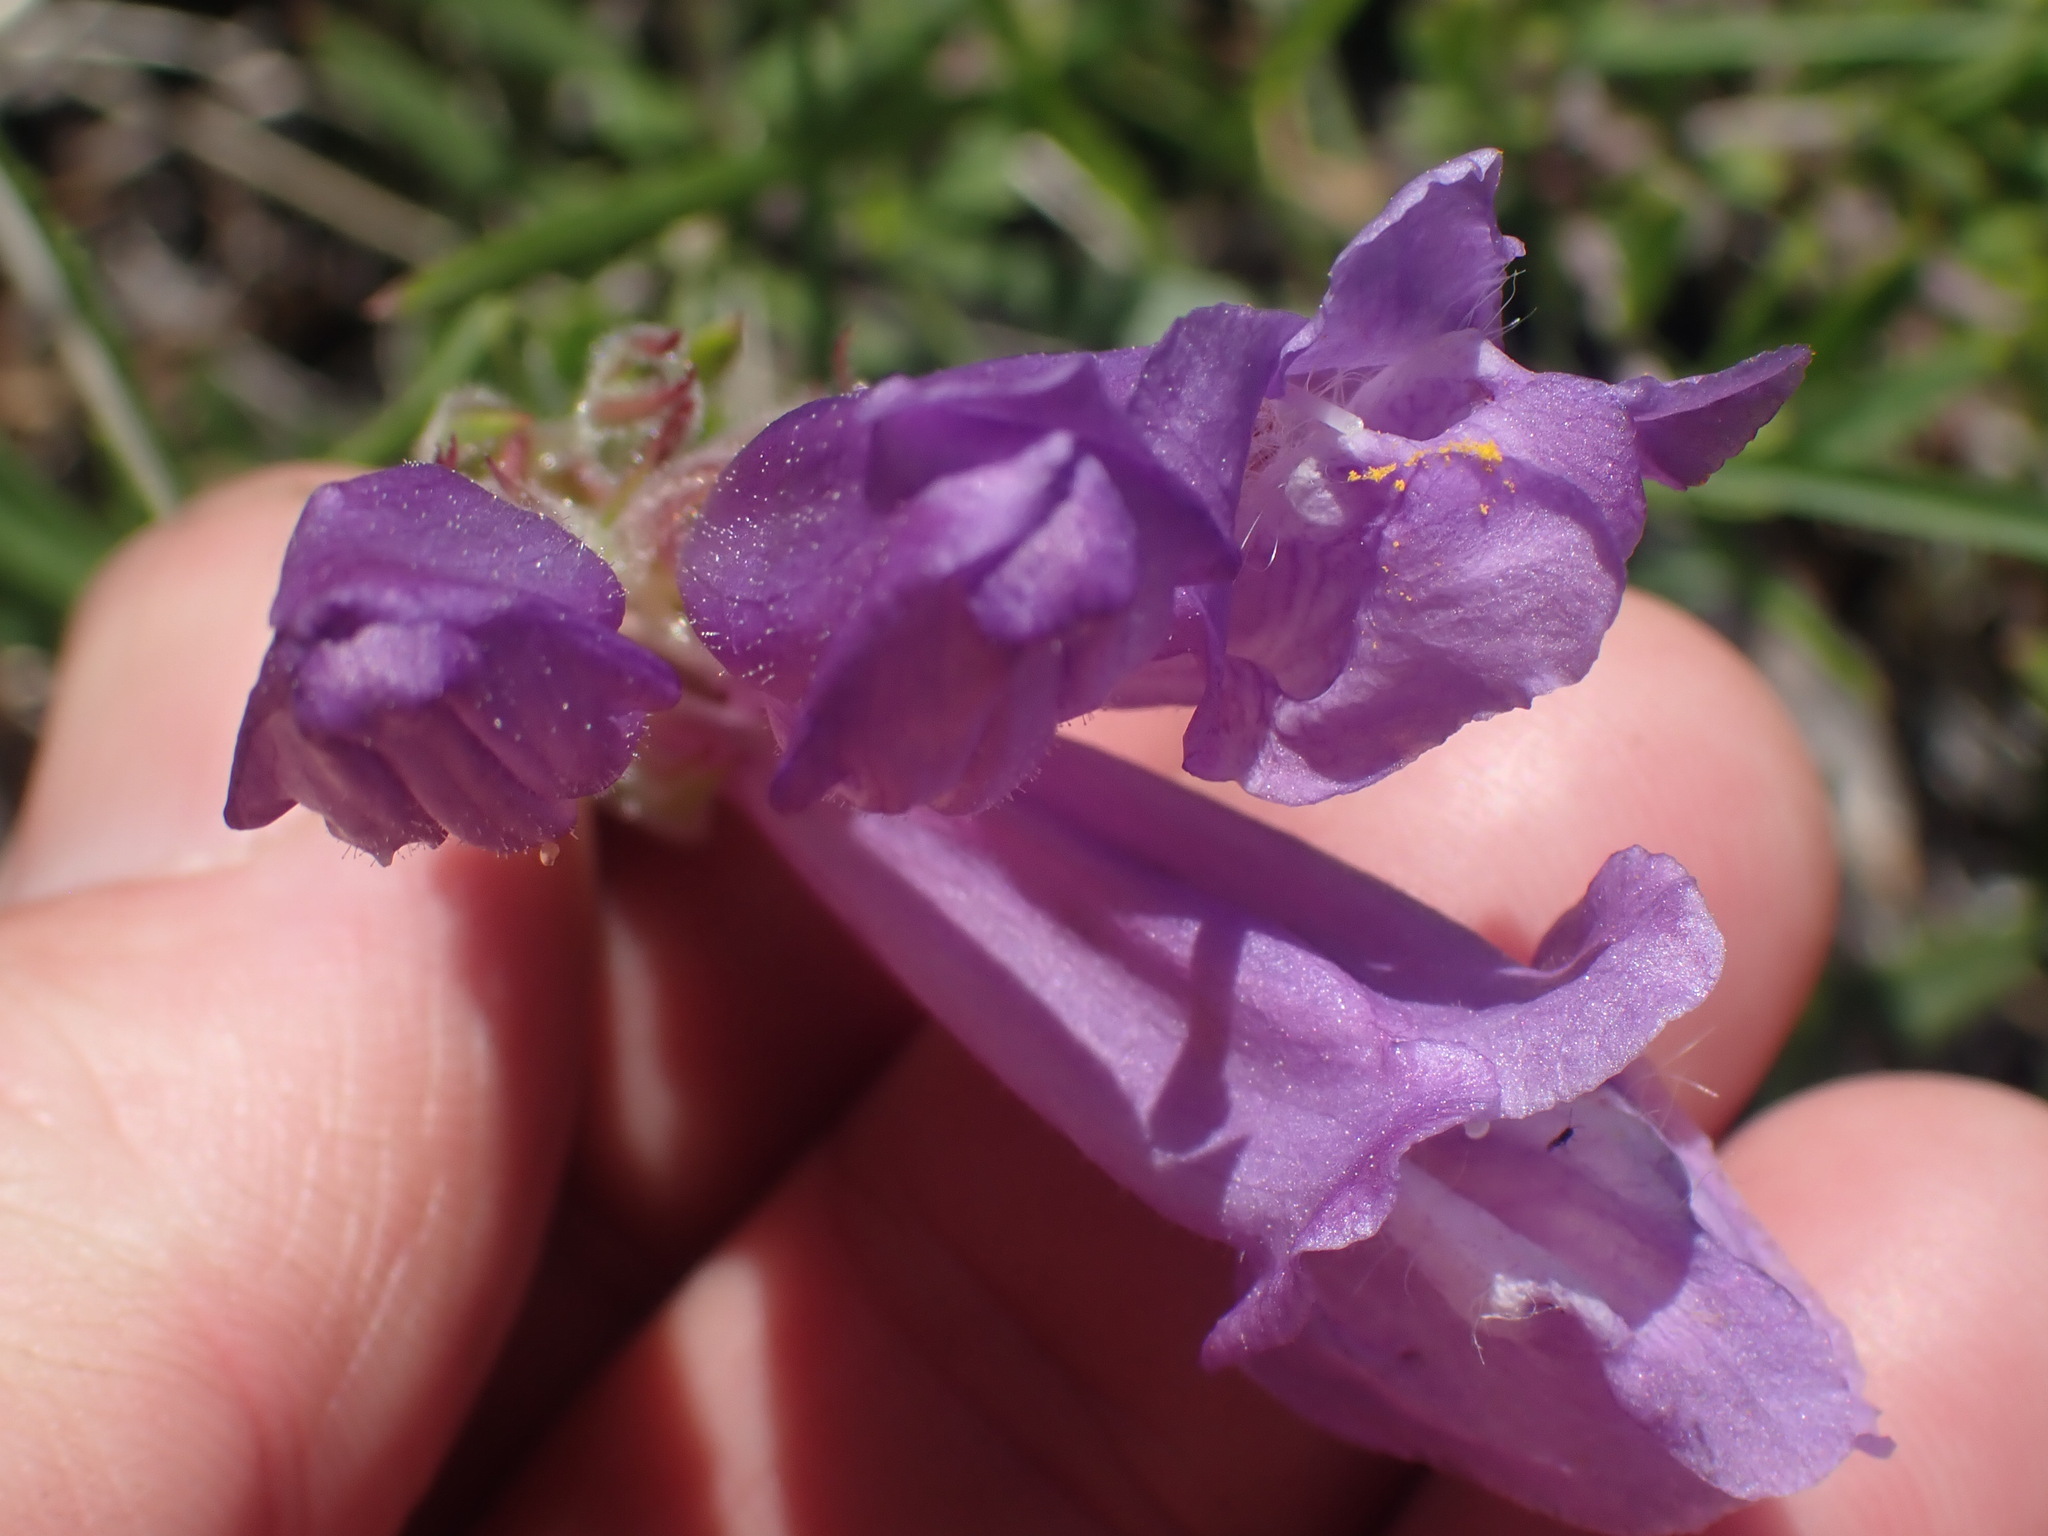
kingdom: Plantae
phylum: Tracheophyta
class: Magnoliopsida
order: Lamiales
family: Plantaginaceae
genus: Penstemon
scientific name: Penstemon fruticosus
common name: Bush penstemon
